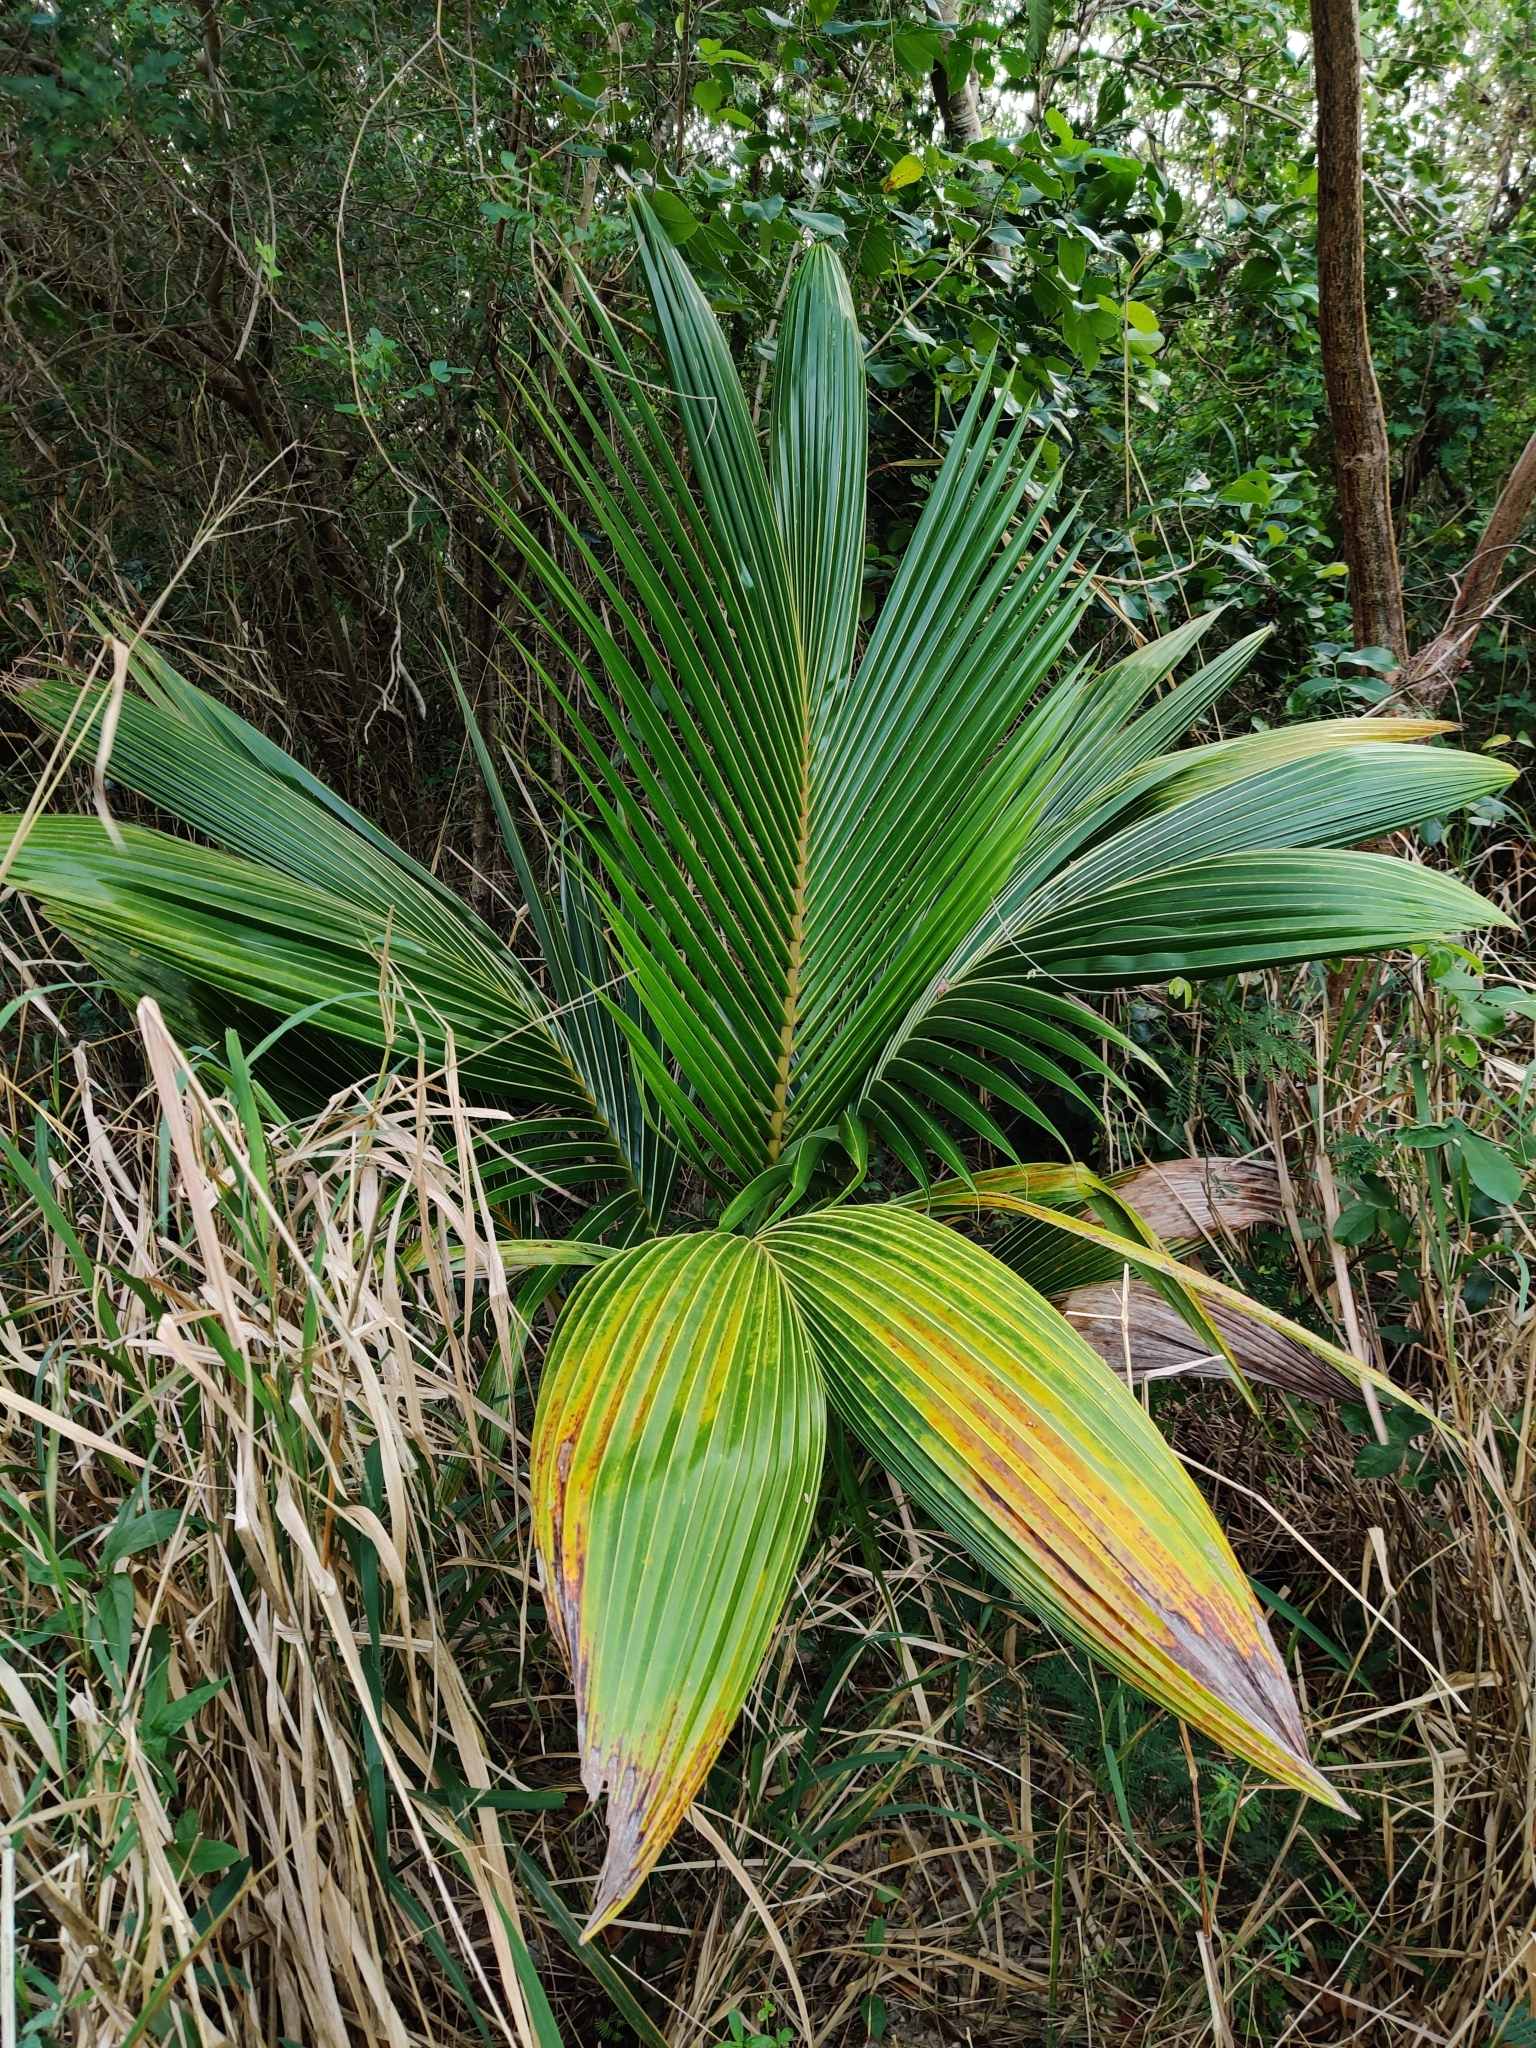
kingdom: Plantae
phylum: Tracheophyta
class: Liliopsida
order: Arecales
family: Arecaceae
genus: Cocos
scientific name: Cocos nucifera
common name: Coconut palm
